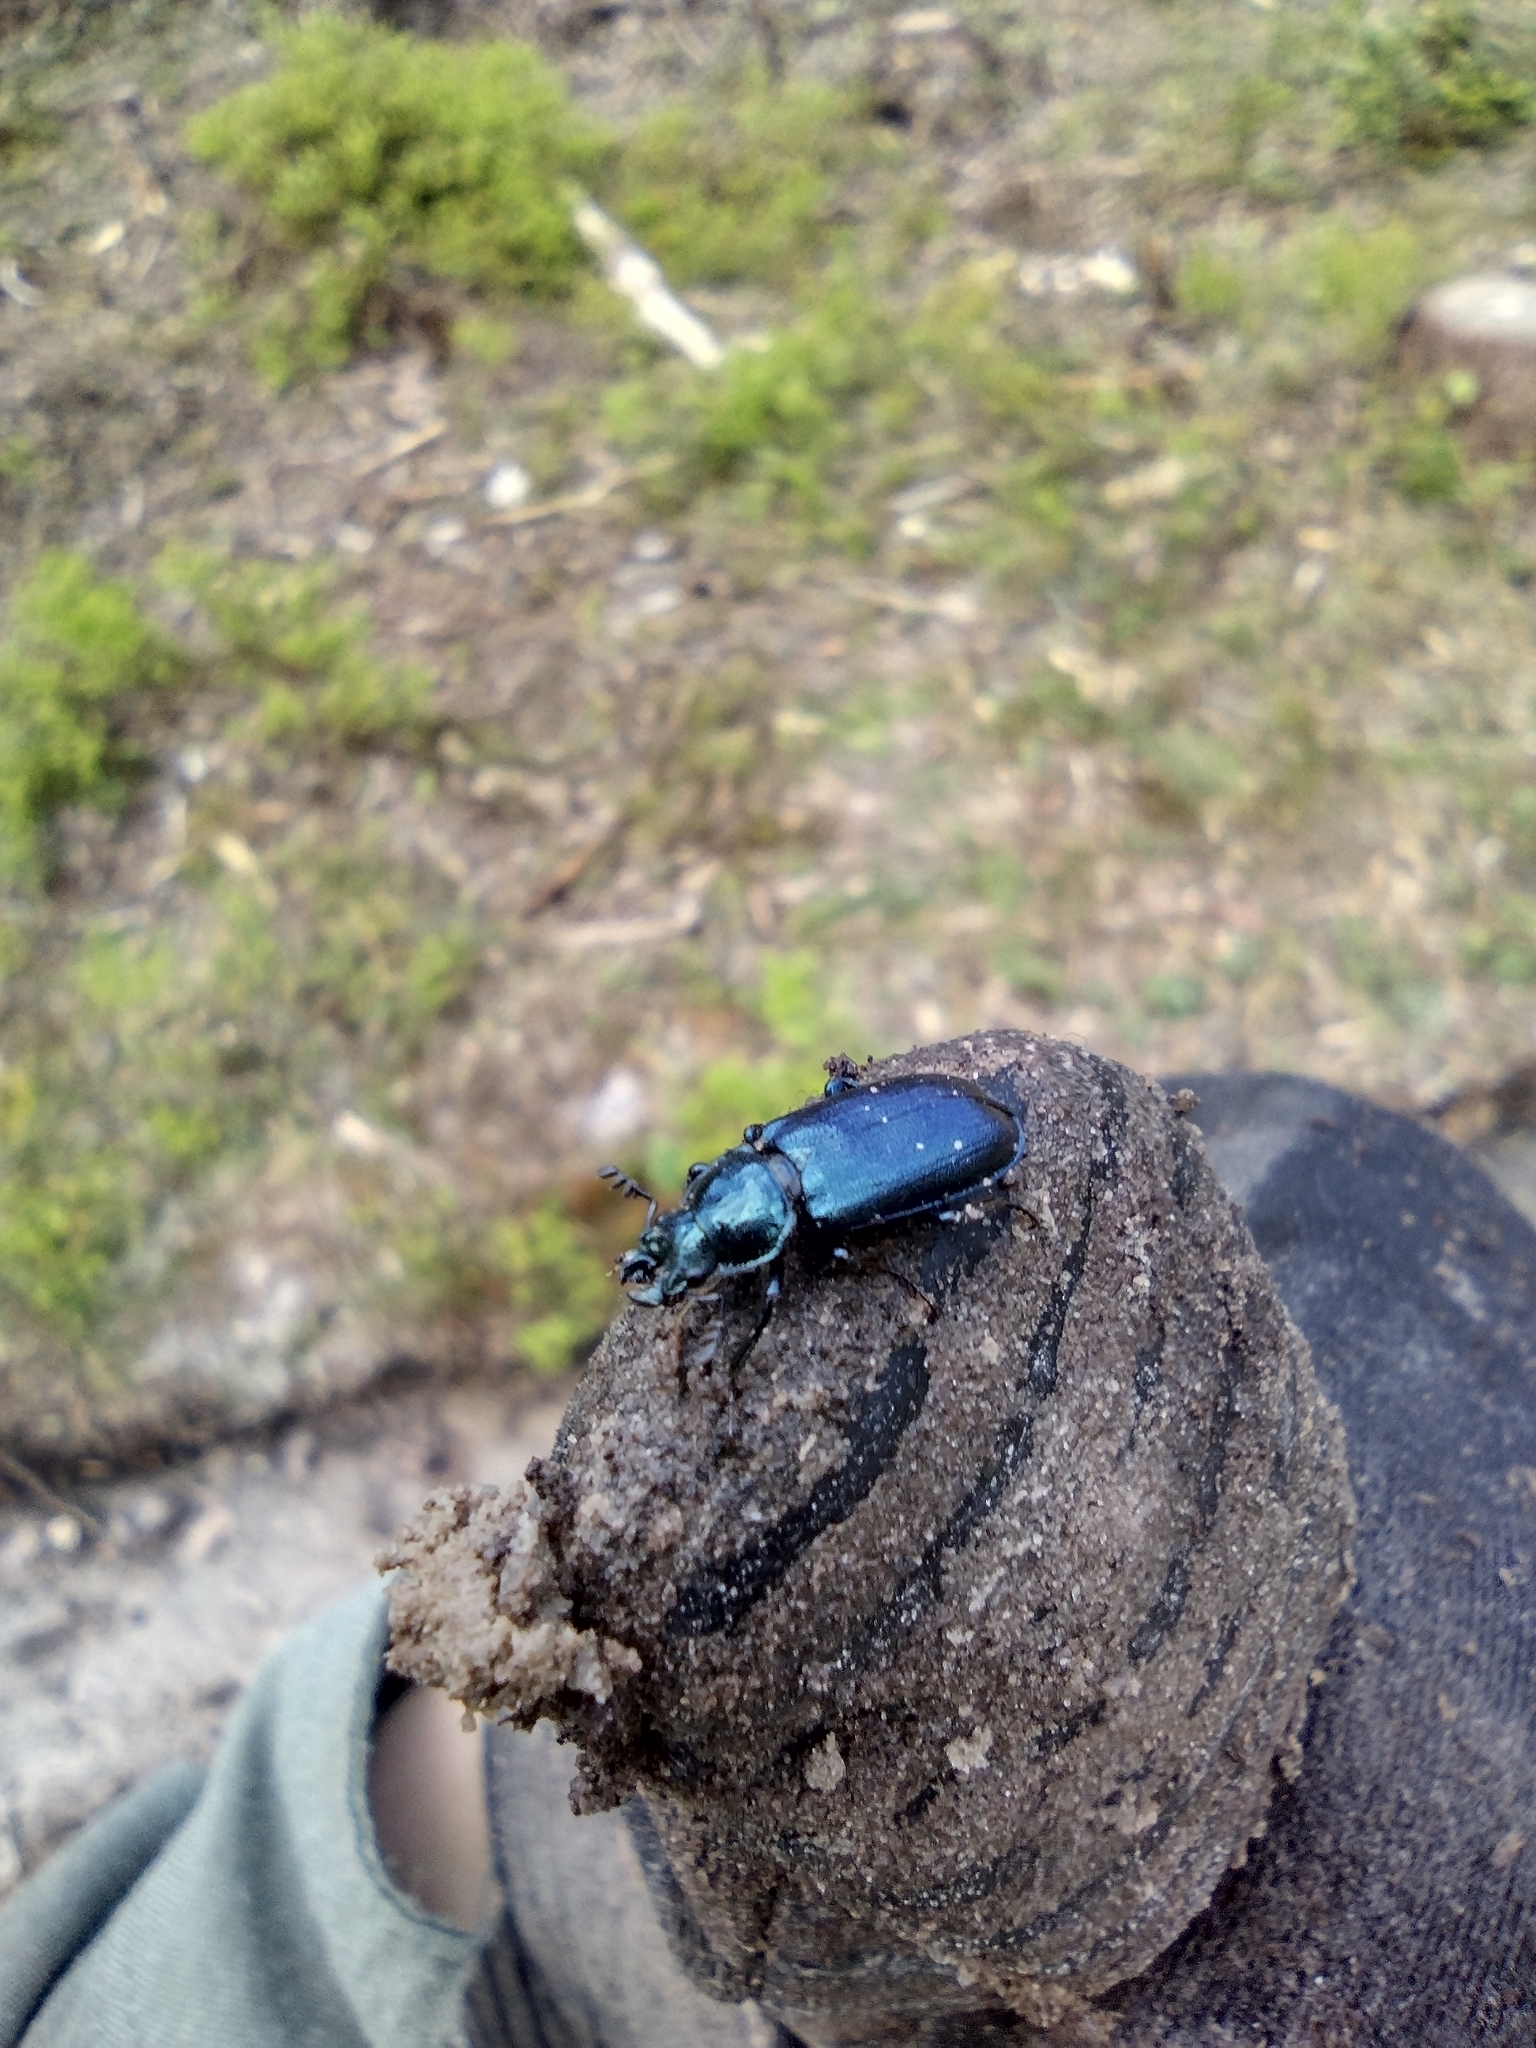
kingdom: Animalia
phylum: Arthropoda
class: Insecta
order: Coleoptera
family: Lucanidae
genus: Platycerus
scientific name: Platycerus caprea
